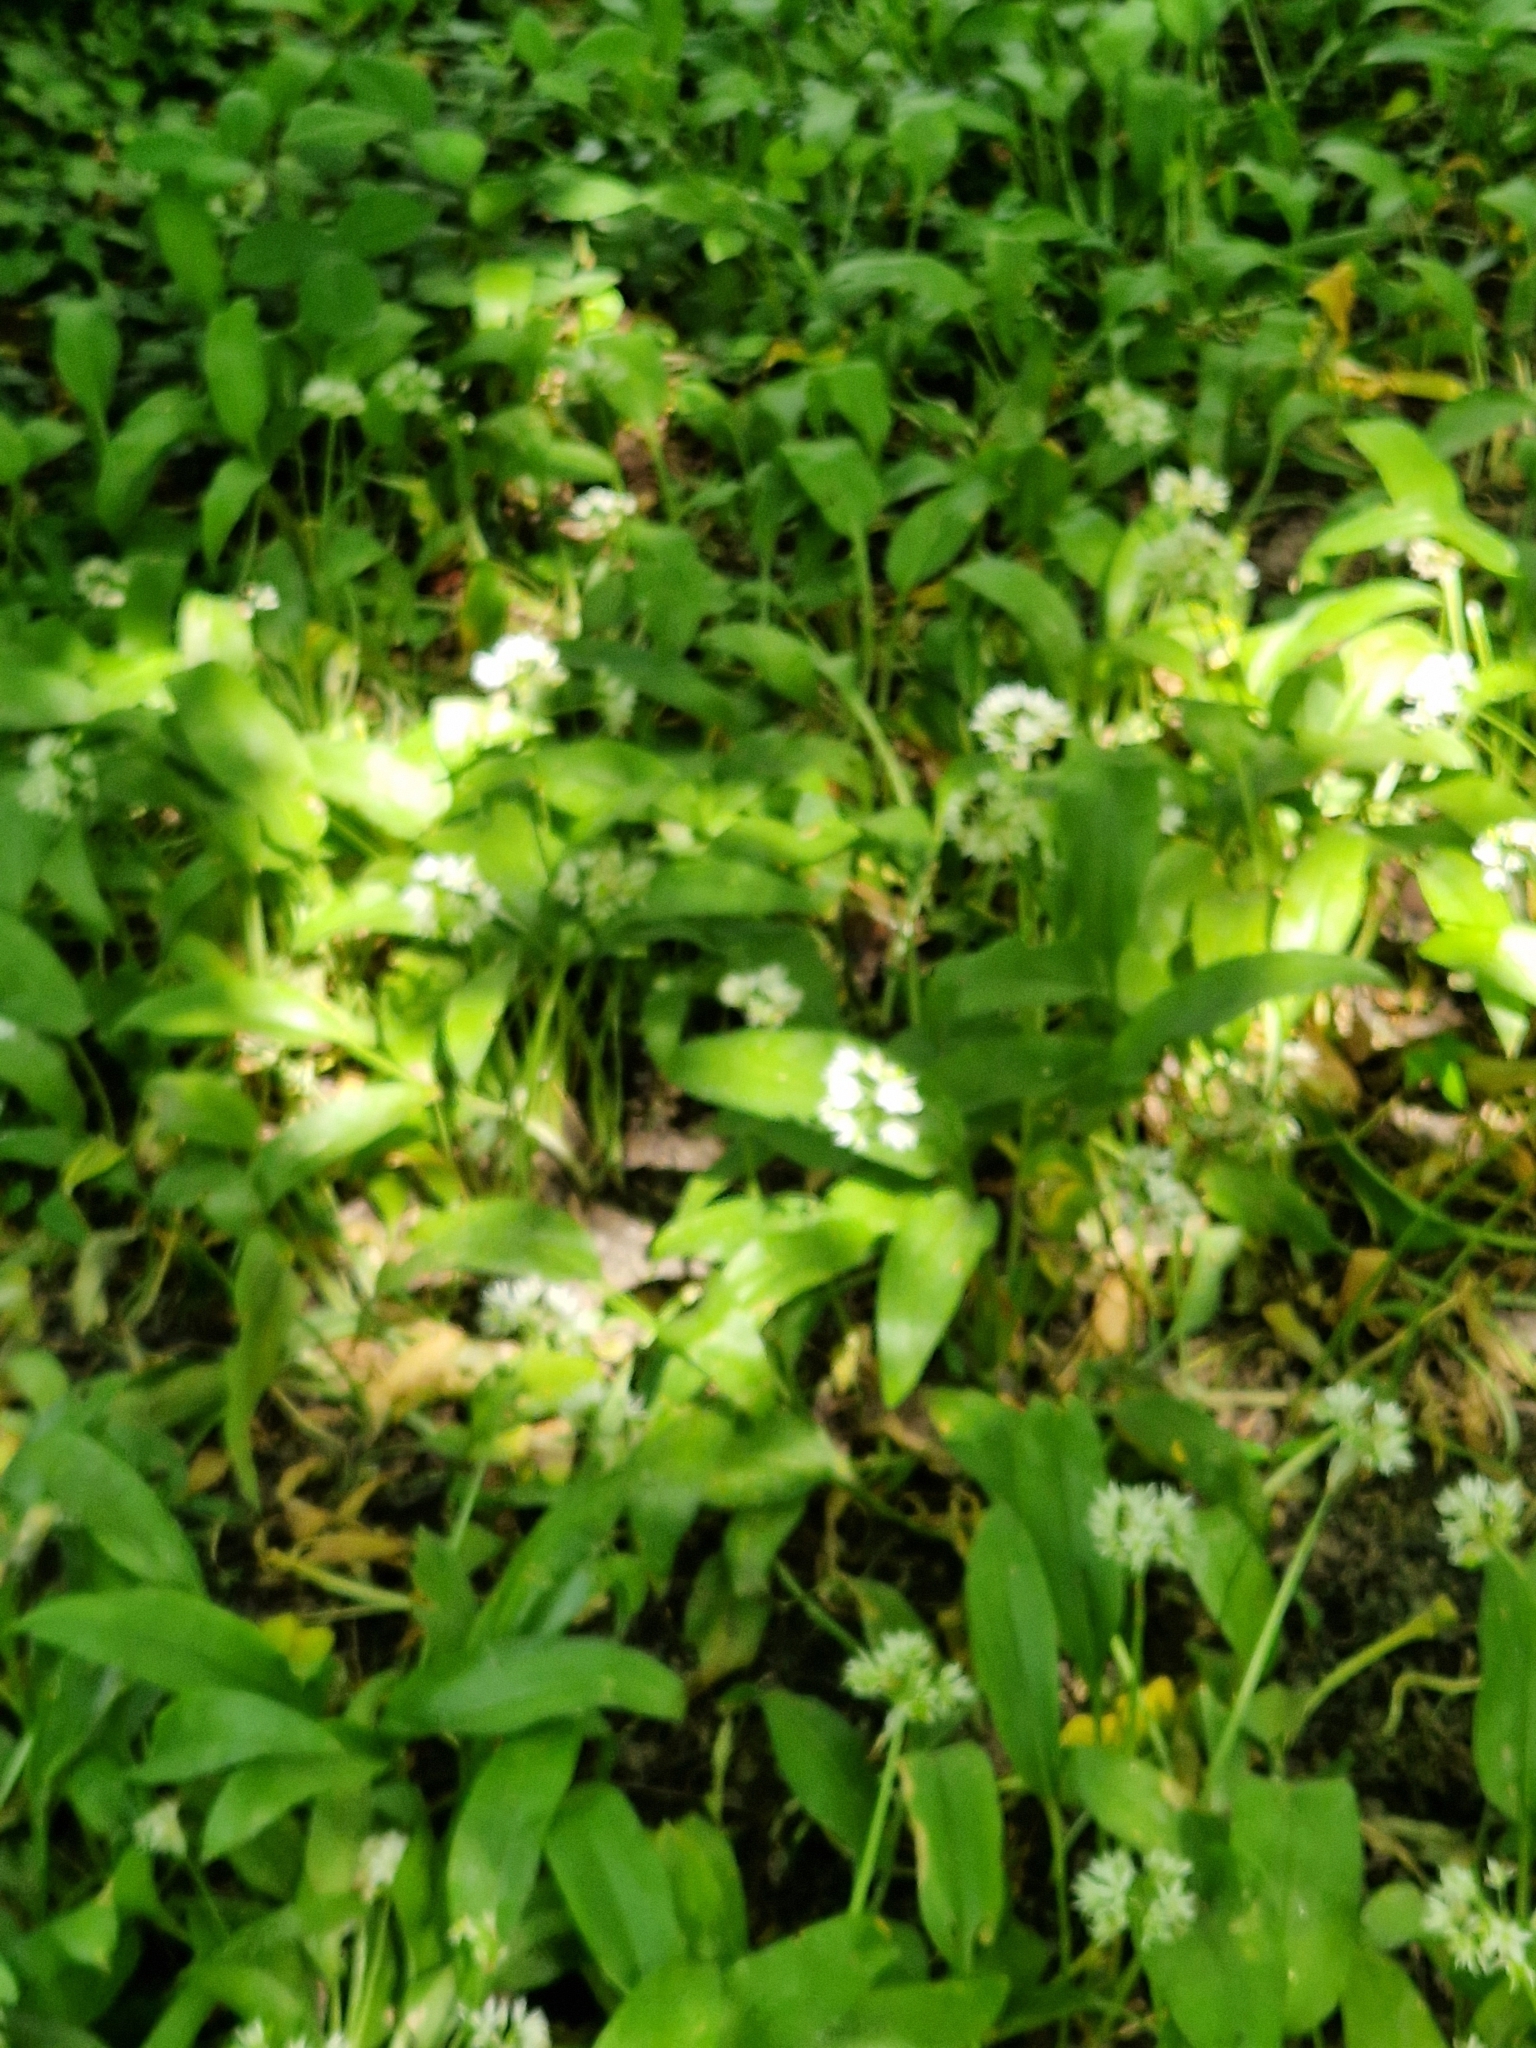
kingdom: Plantae
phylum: Tracheophyta
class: Liliopsida
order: Asparagales
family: Amaryllidaceae
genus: Allium
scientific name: Allium ursinum
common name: Ramsons
